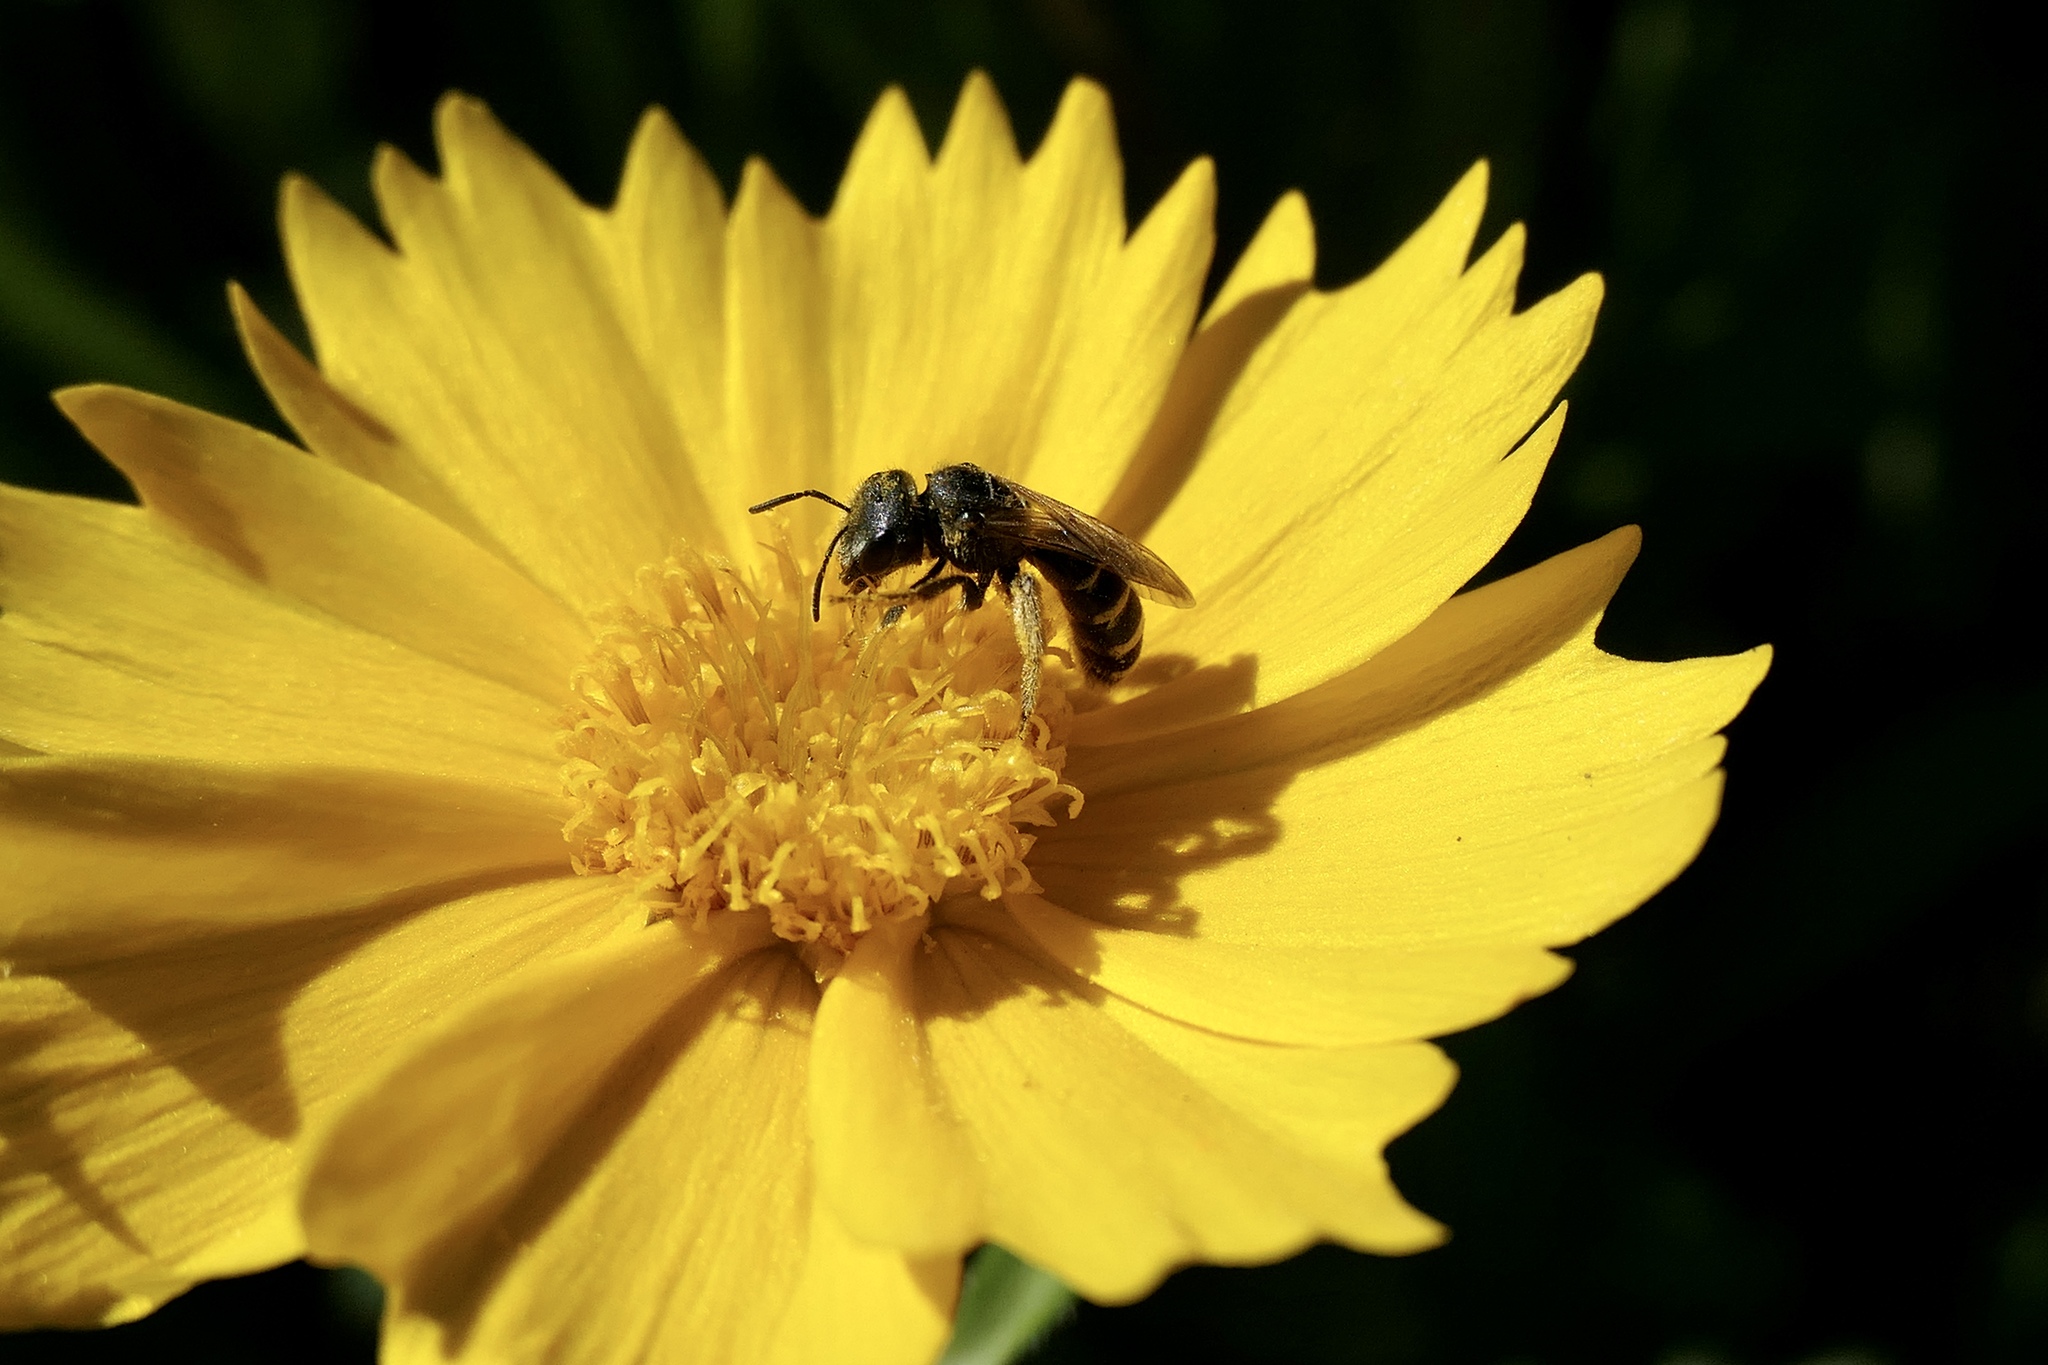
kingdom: Animalia
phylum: Arthropoda
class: Insecta
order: Hymenoptera
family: Halictidae
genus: Halictus
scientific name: Halictus ligatus
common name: Ligated furrow bee
